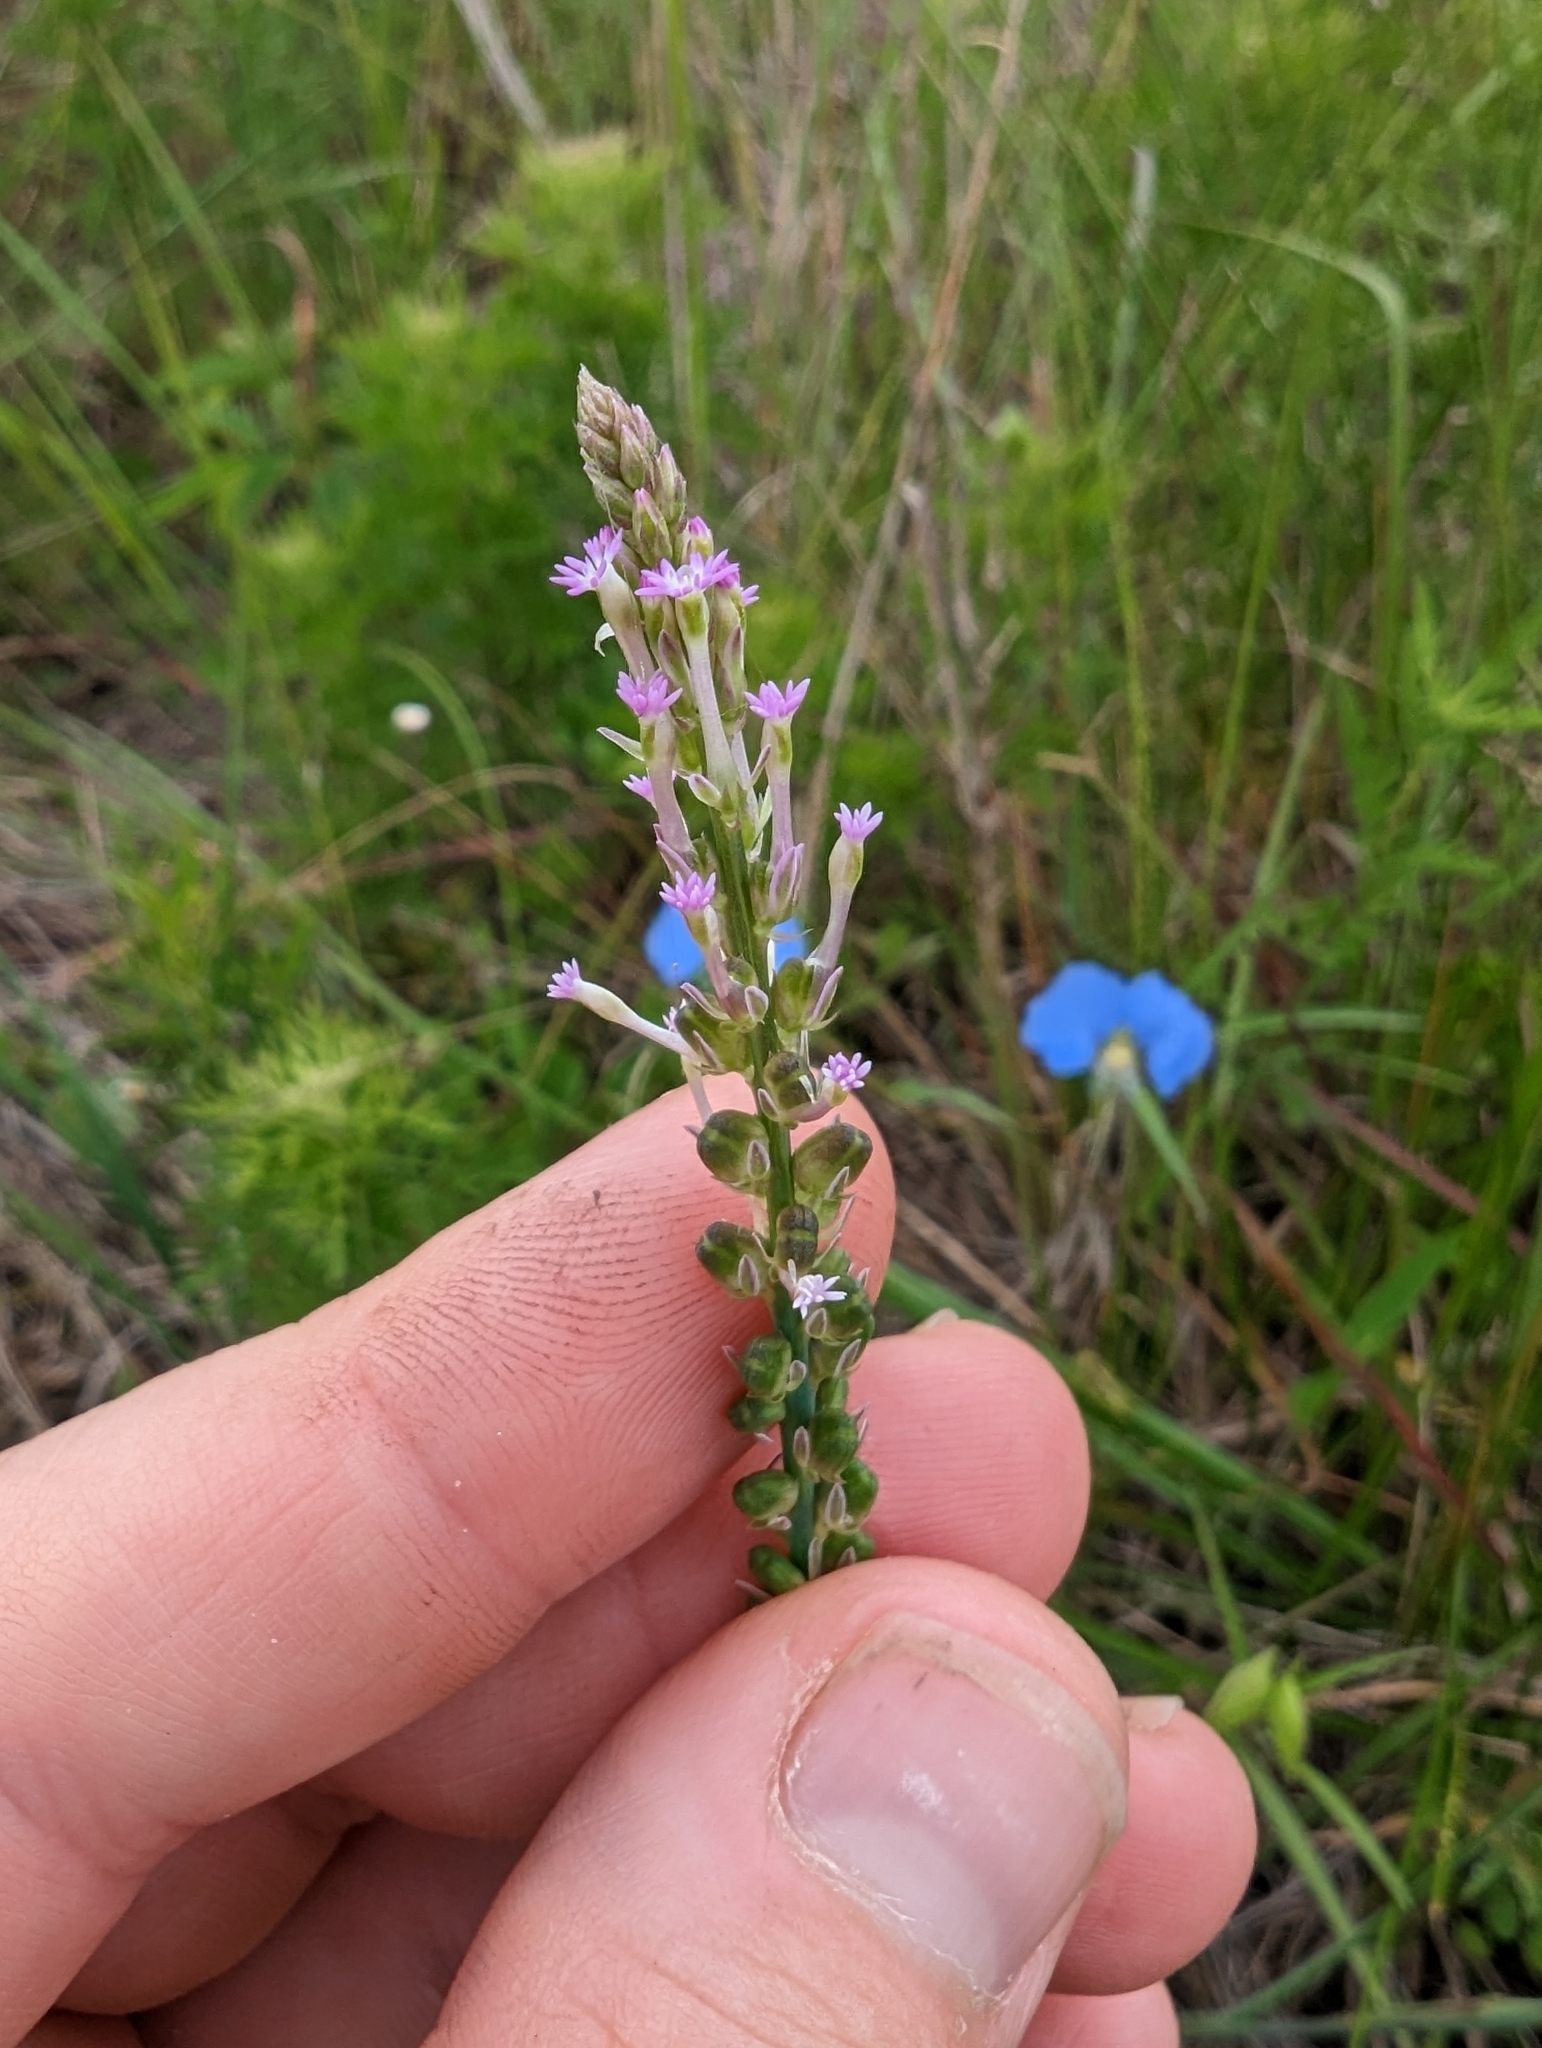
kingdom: Plantae
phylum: Tracheophyta
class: Magnoliopsida
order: Fabales
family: Polygalaceae
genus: Polygala
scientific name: Polygala incarnata
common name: Pink milkwort
